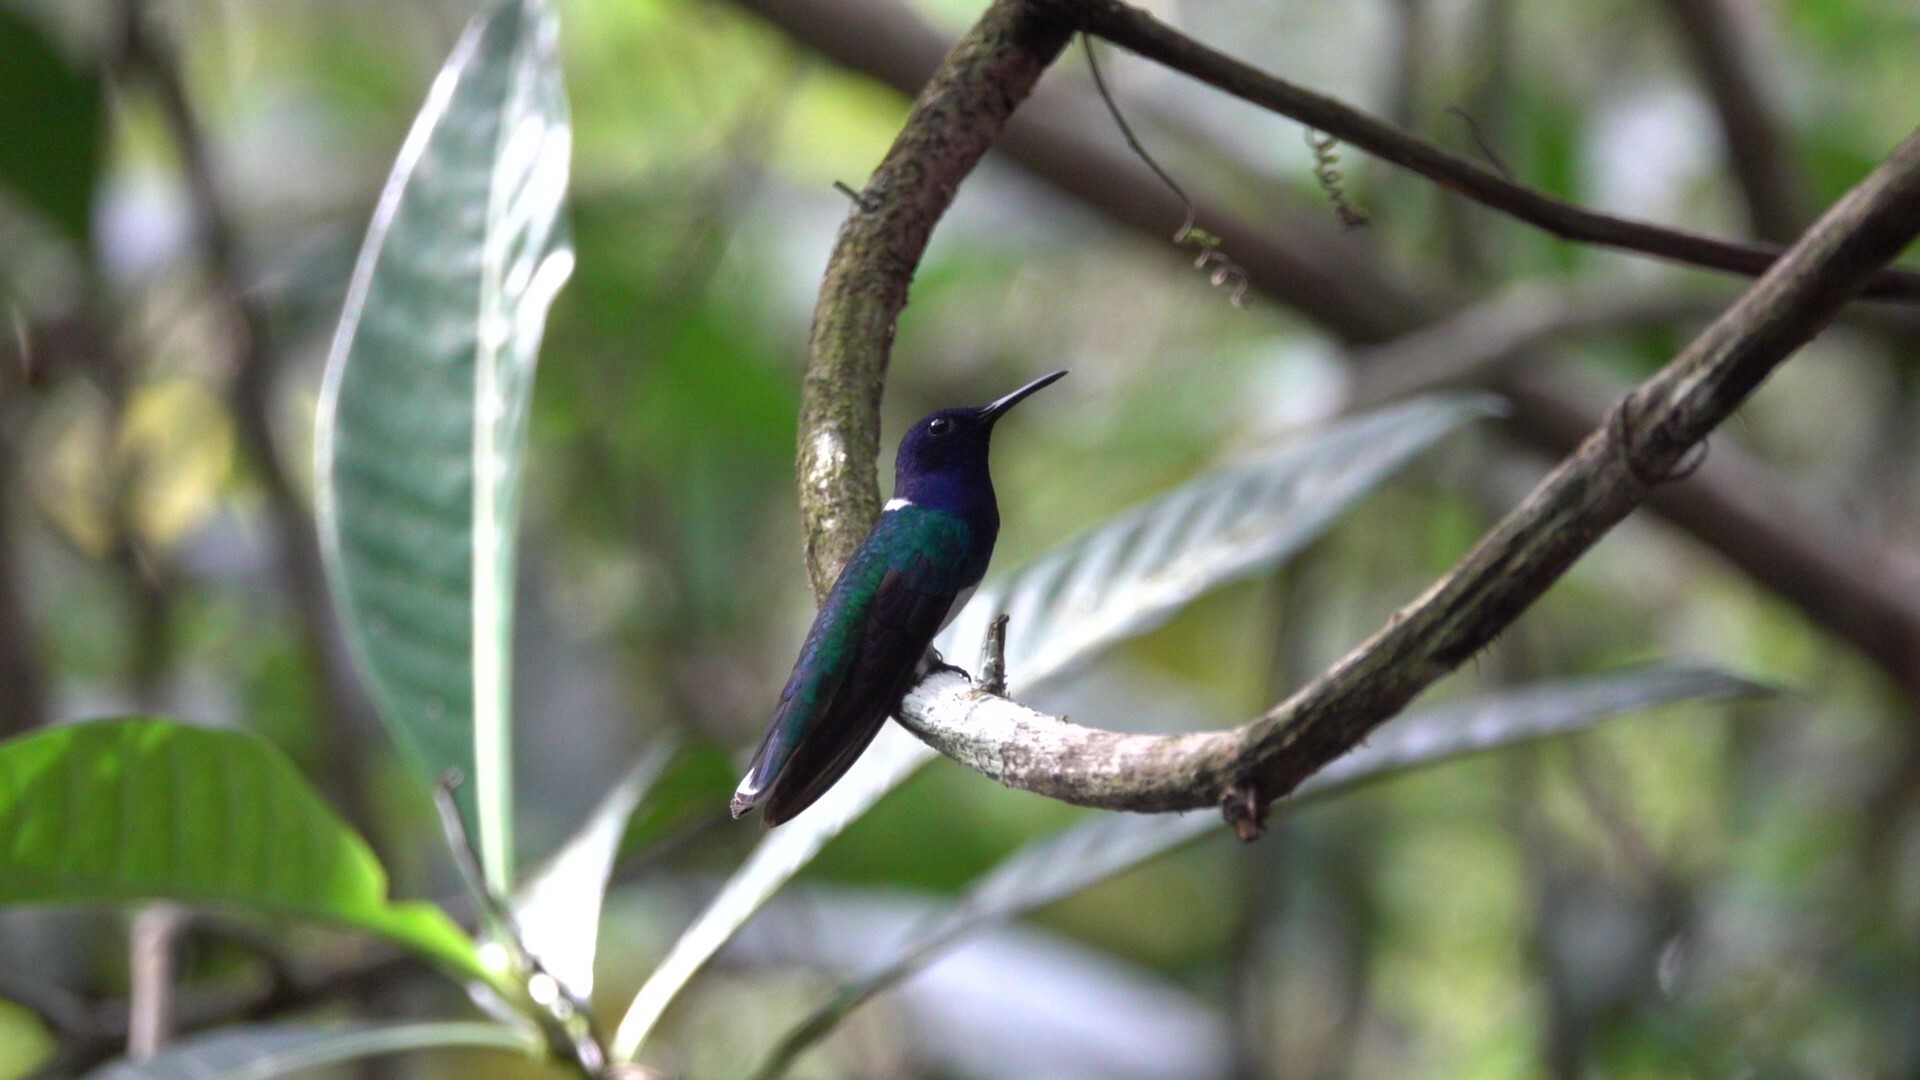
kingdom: Animalia
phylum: Chordata
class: Aves
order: Apodiformes
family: Trochilidae
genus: Florisuga
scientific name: Florisuga mellivora
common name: White-necked jacobin
